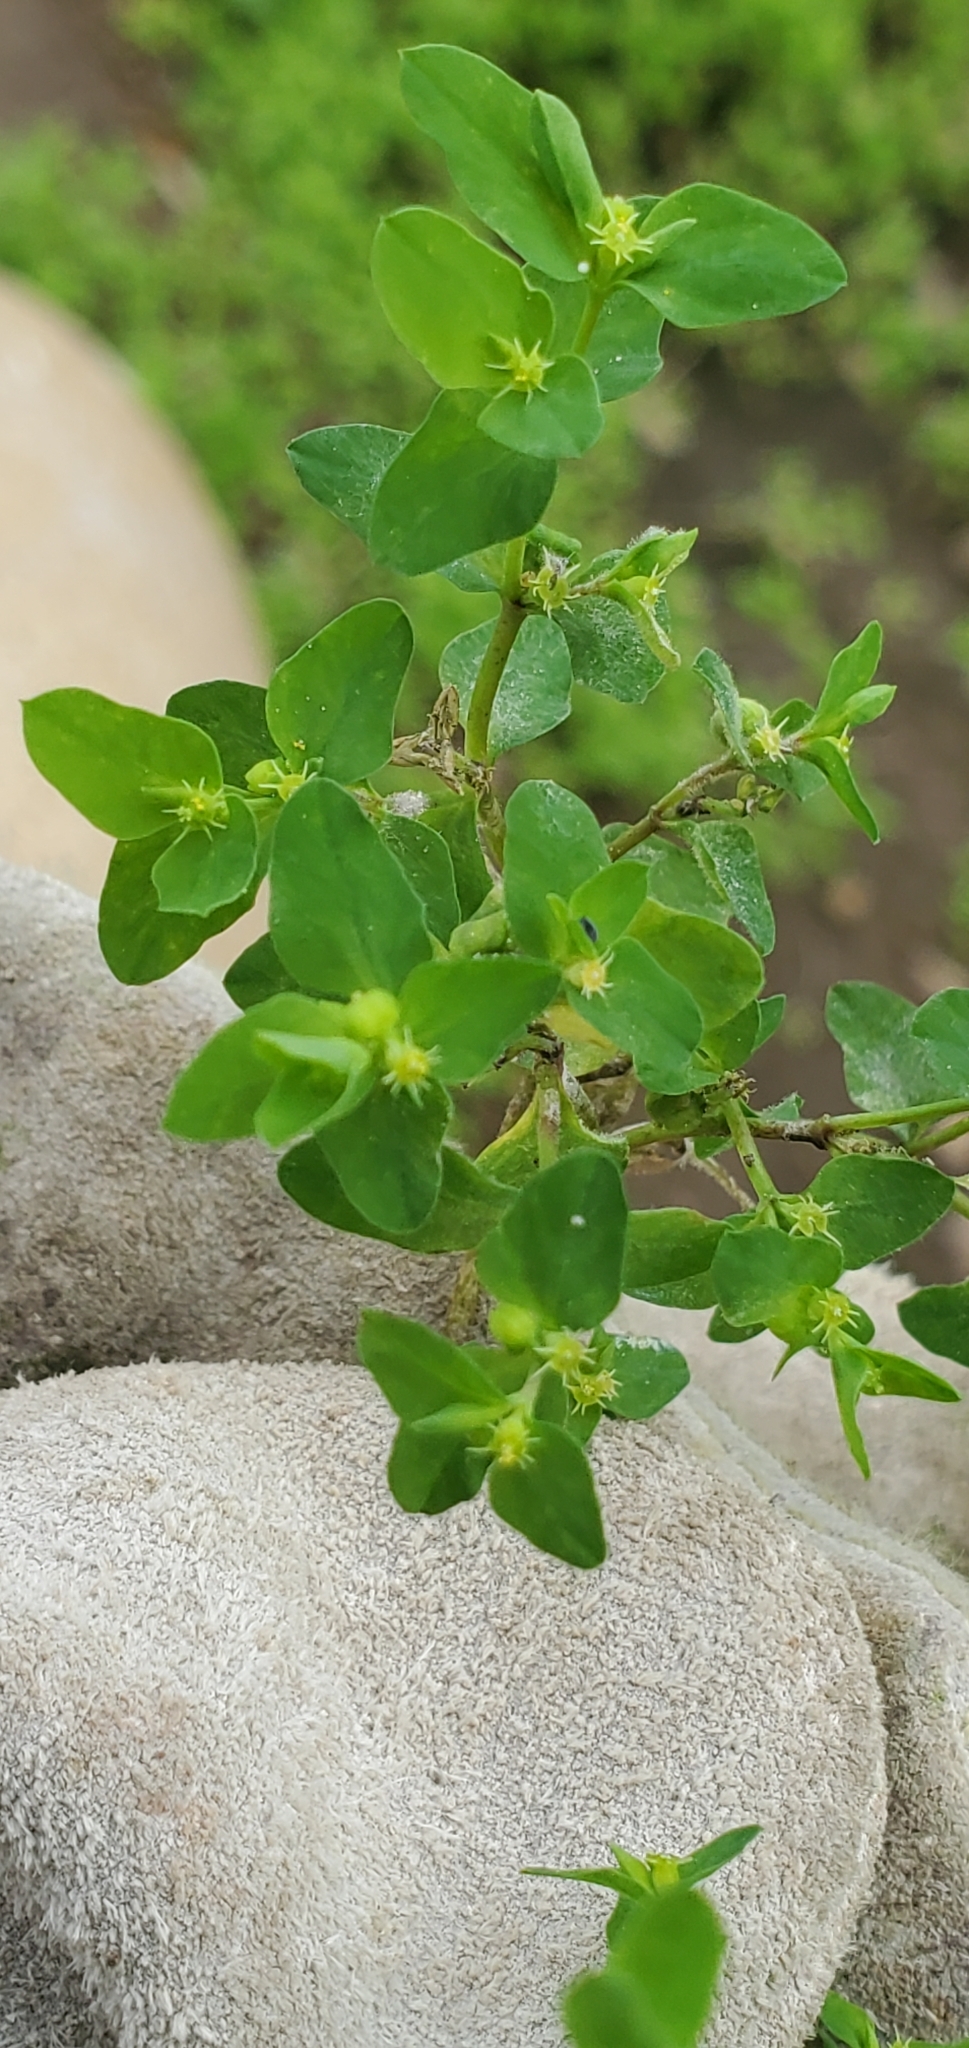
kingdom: Plantae
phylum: Tracheophyta
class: Magnoliopsida
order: Malpighiales
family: Euphorbiaceae
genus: Euphorbia
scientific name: Euphorbia peplus
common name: Petty spurge
